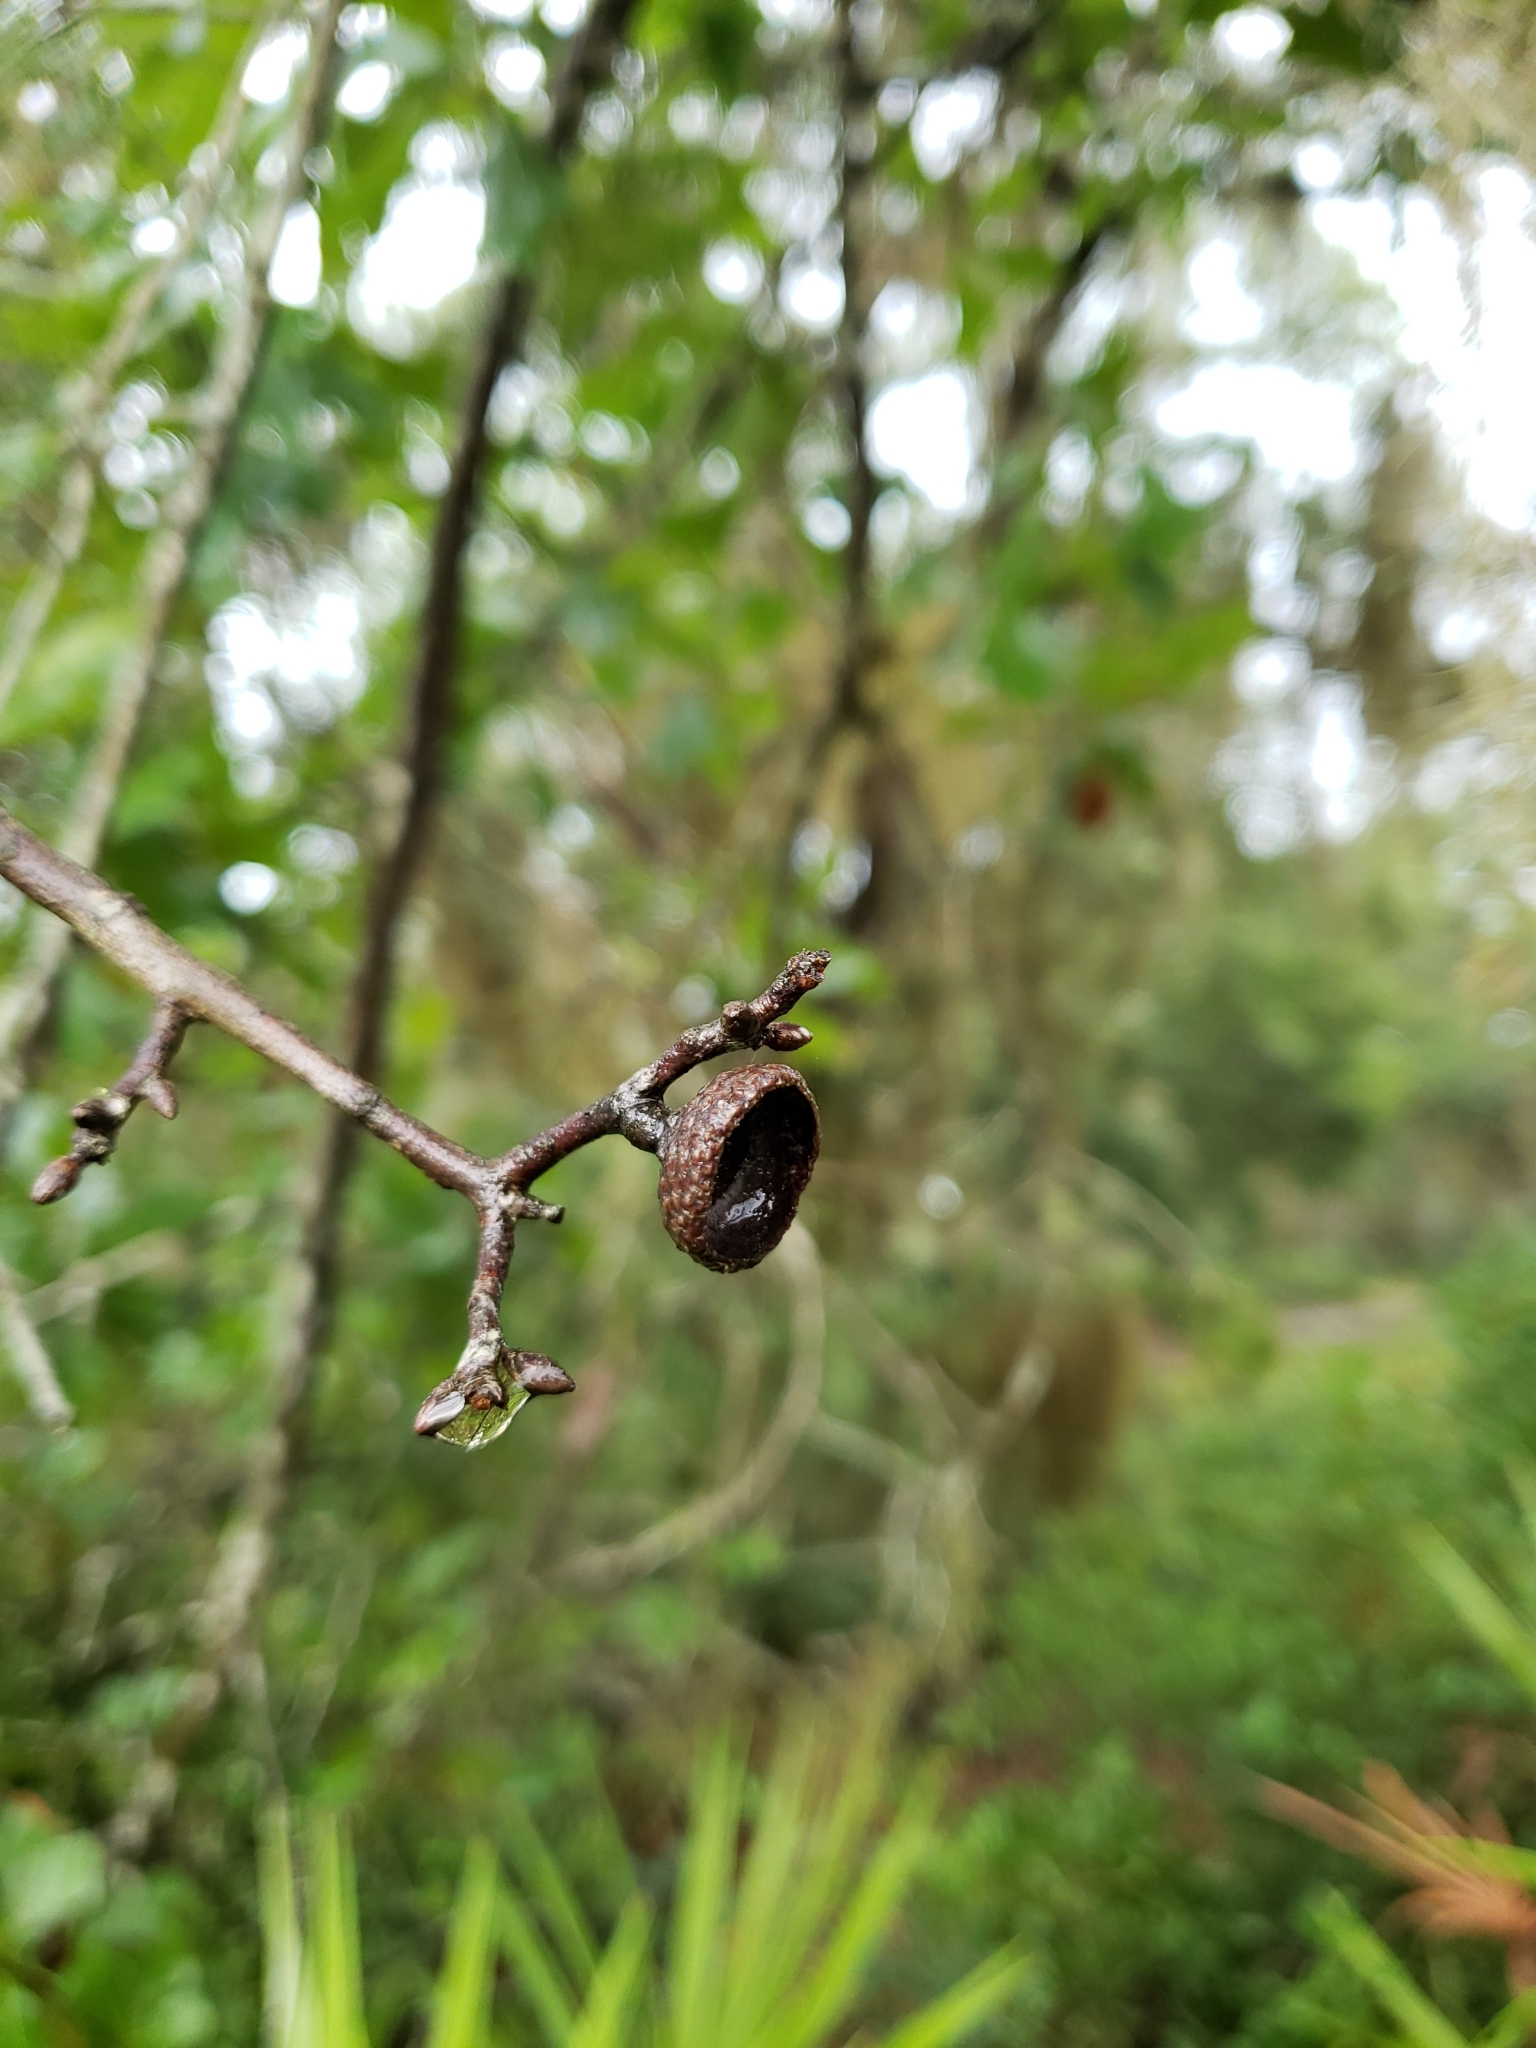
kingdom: Plantae
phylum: Tracheophyta
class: Magnoliopsida
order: Fagales
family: Fagaceae
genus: Quercus
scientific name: Quercus walteriana
